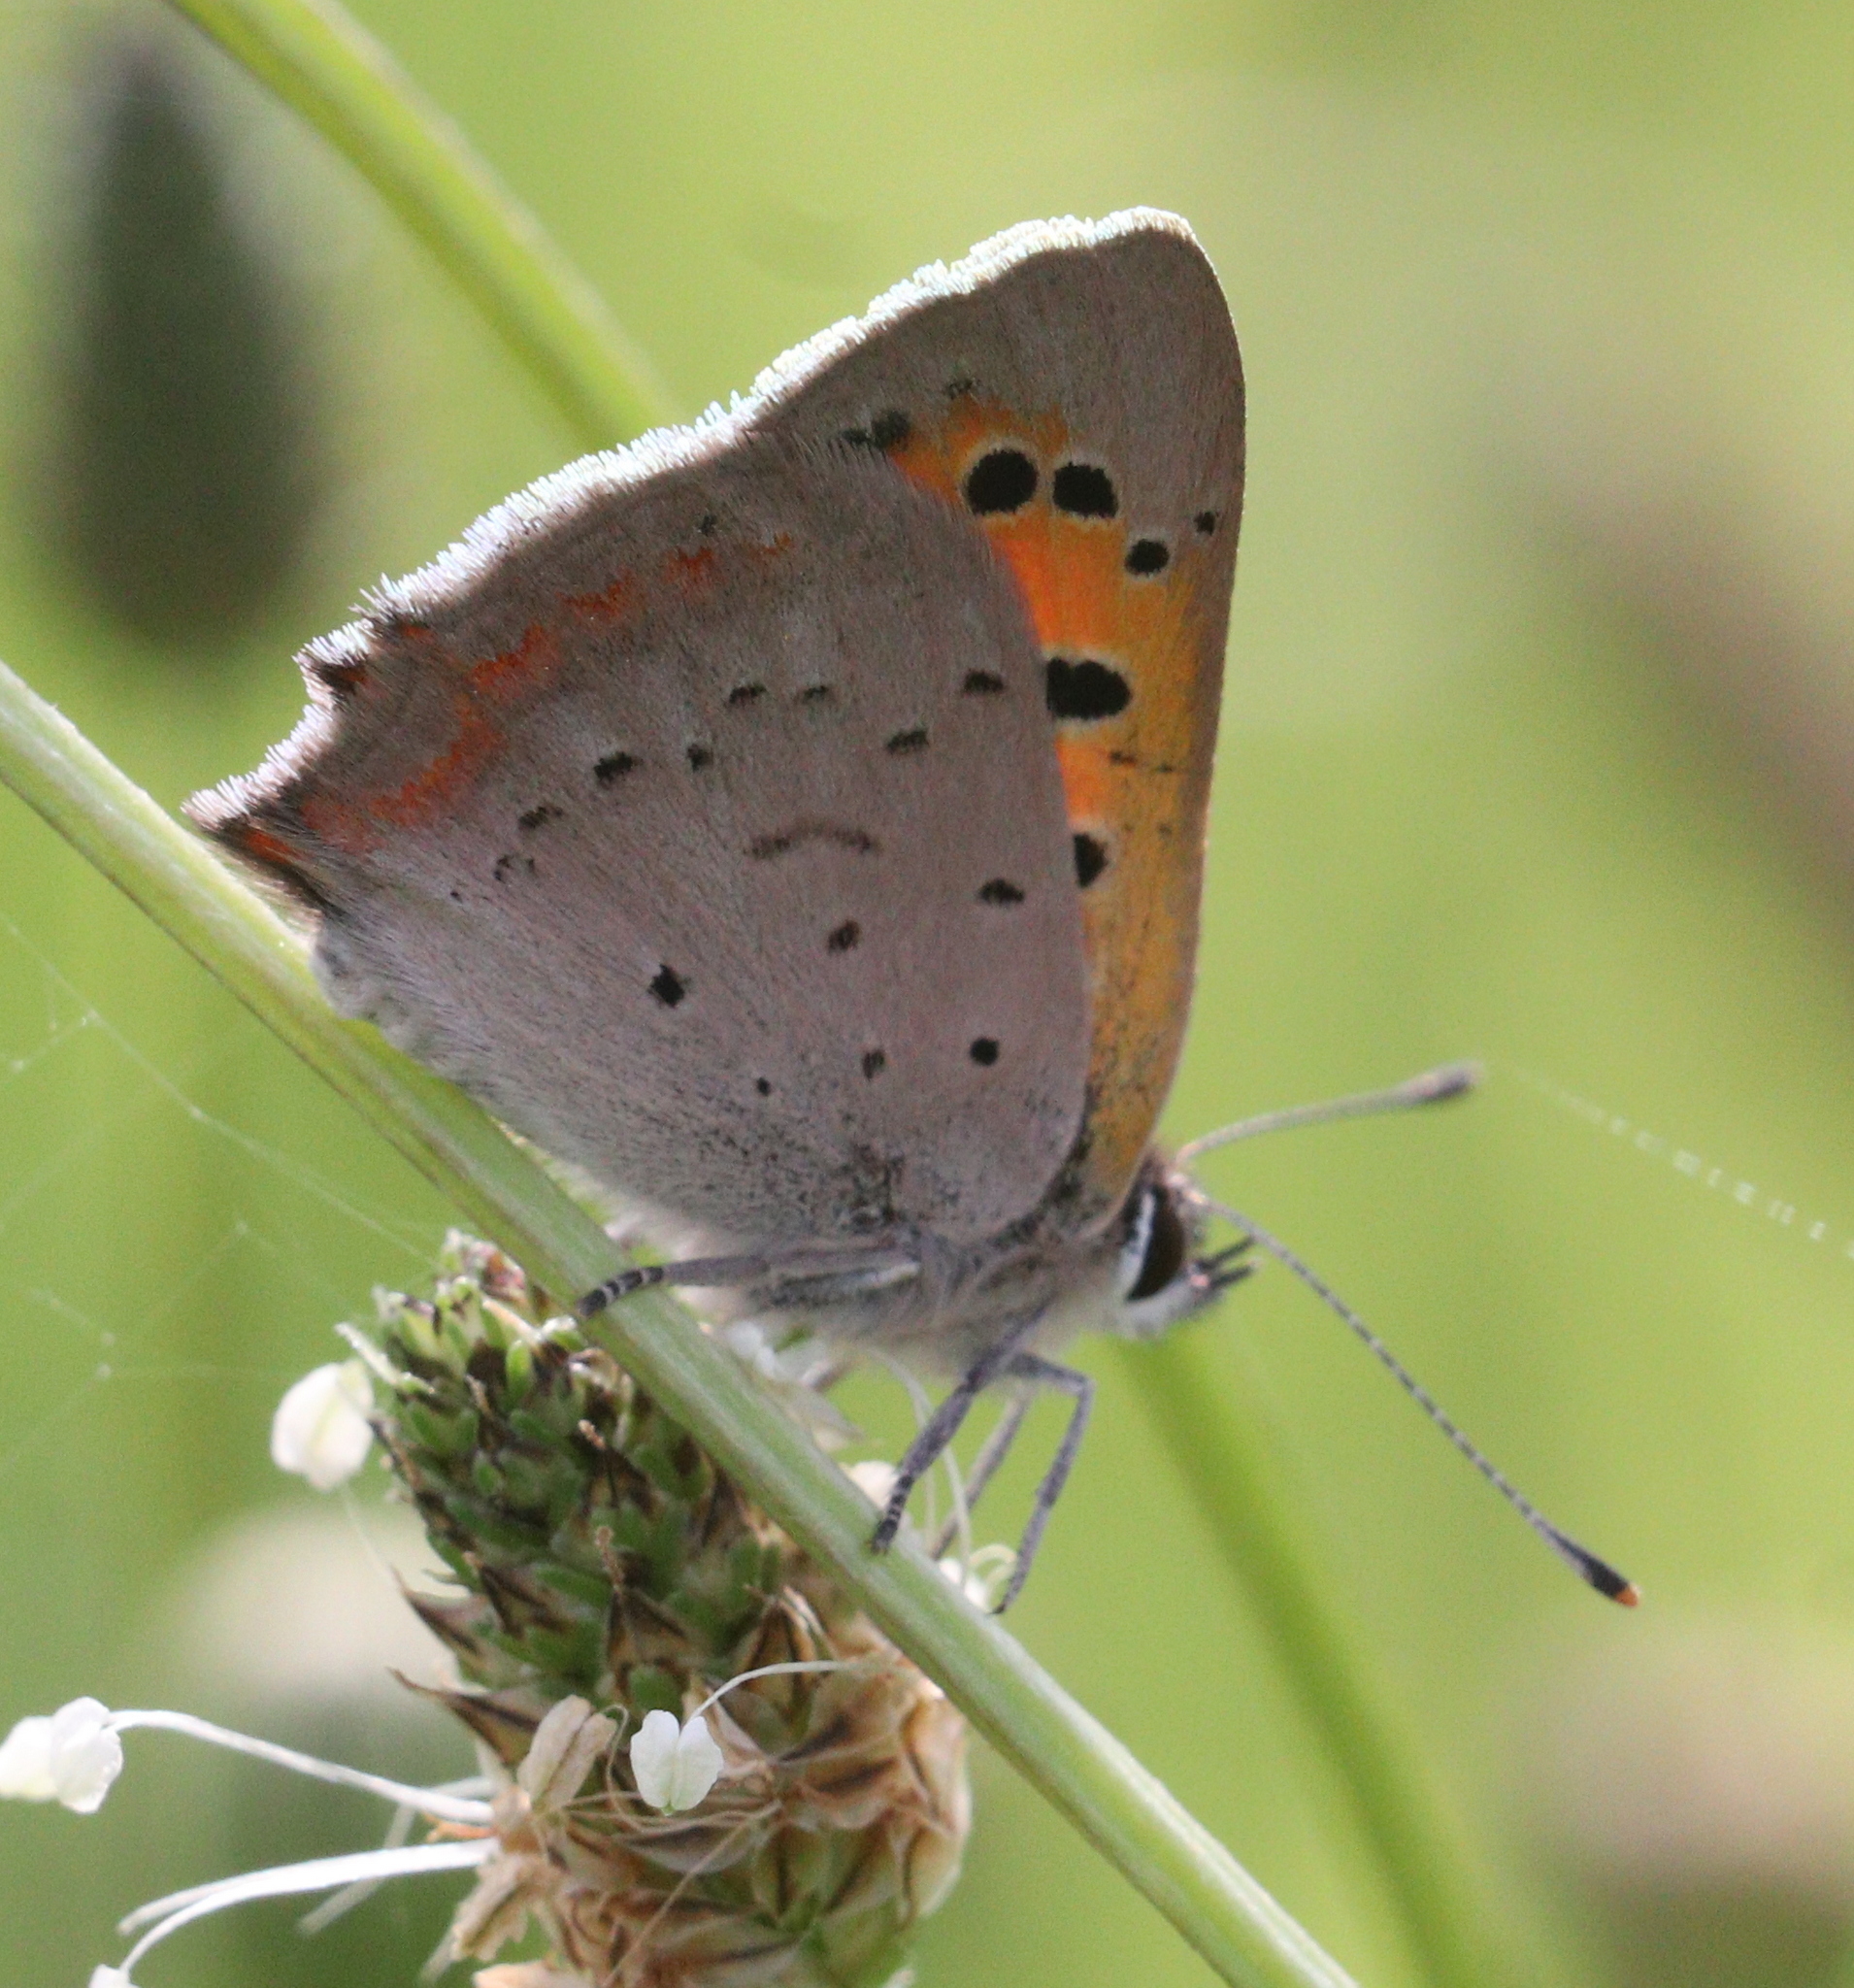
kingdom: Animalia
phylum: Arthropoda
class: Insecta
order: Lepidoptera
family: Lycaenidae
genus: Lycaena
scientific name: Lycaena phlaeas
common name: Small copper
